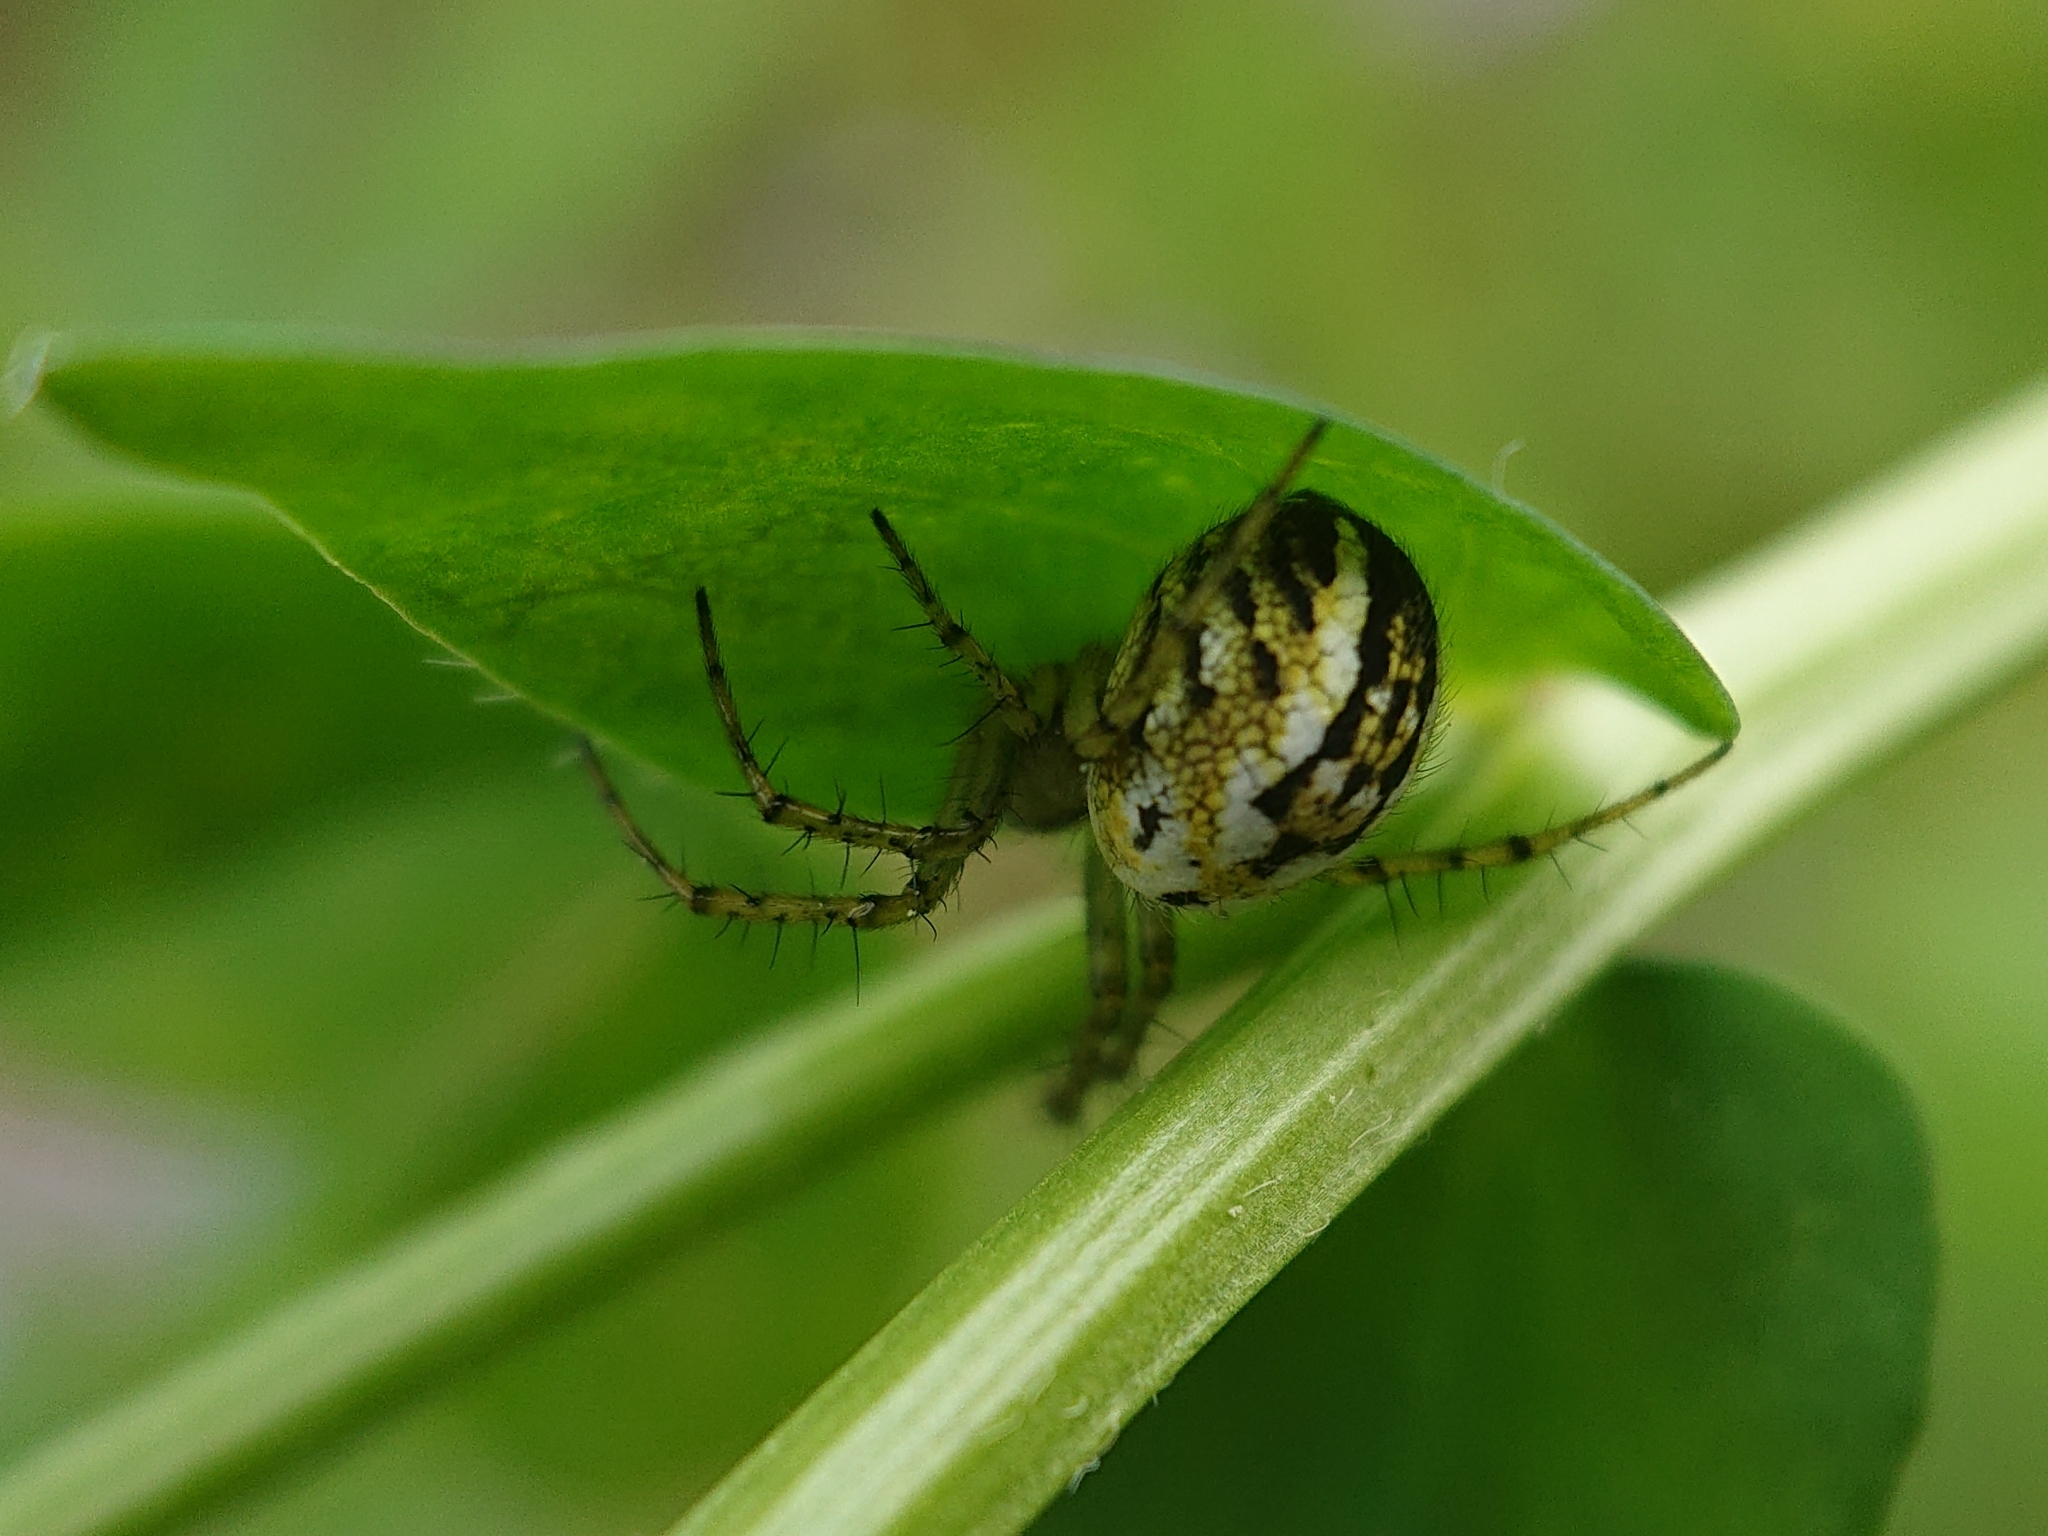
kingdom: Animalia
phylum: Arthropoda
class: Arachnida
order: Araneae
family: Araneidae
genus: Mangora
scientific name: Mangora acalypha
